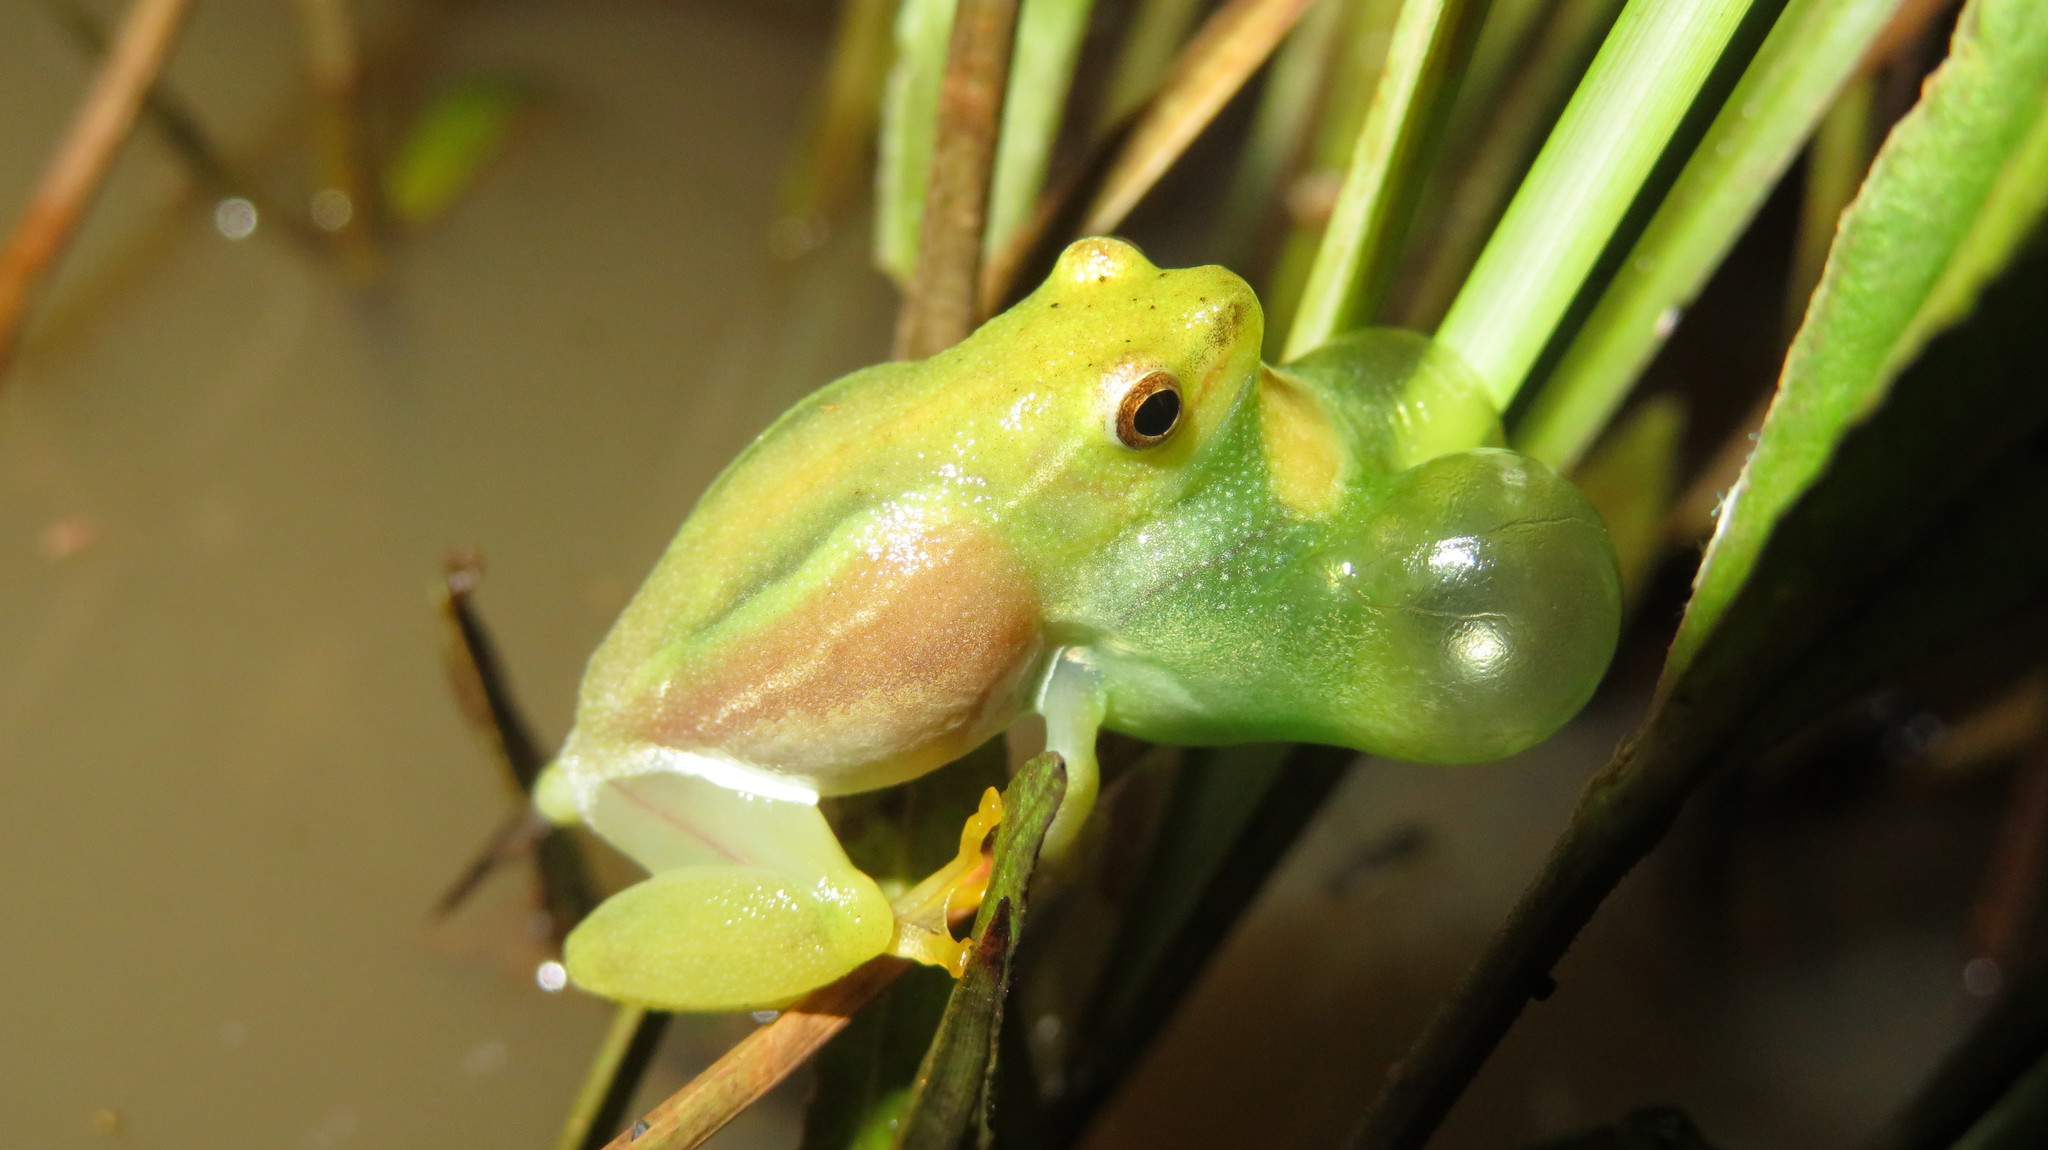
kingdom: Animalia
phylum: Chordata
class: Amphibia
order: Anura
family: Hyperoliidae
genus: Hyperolius
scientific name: Hyperolius pusillus
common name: Water lily reed frog
